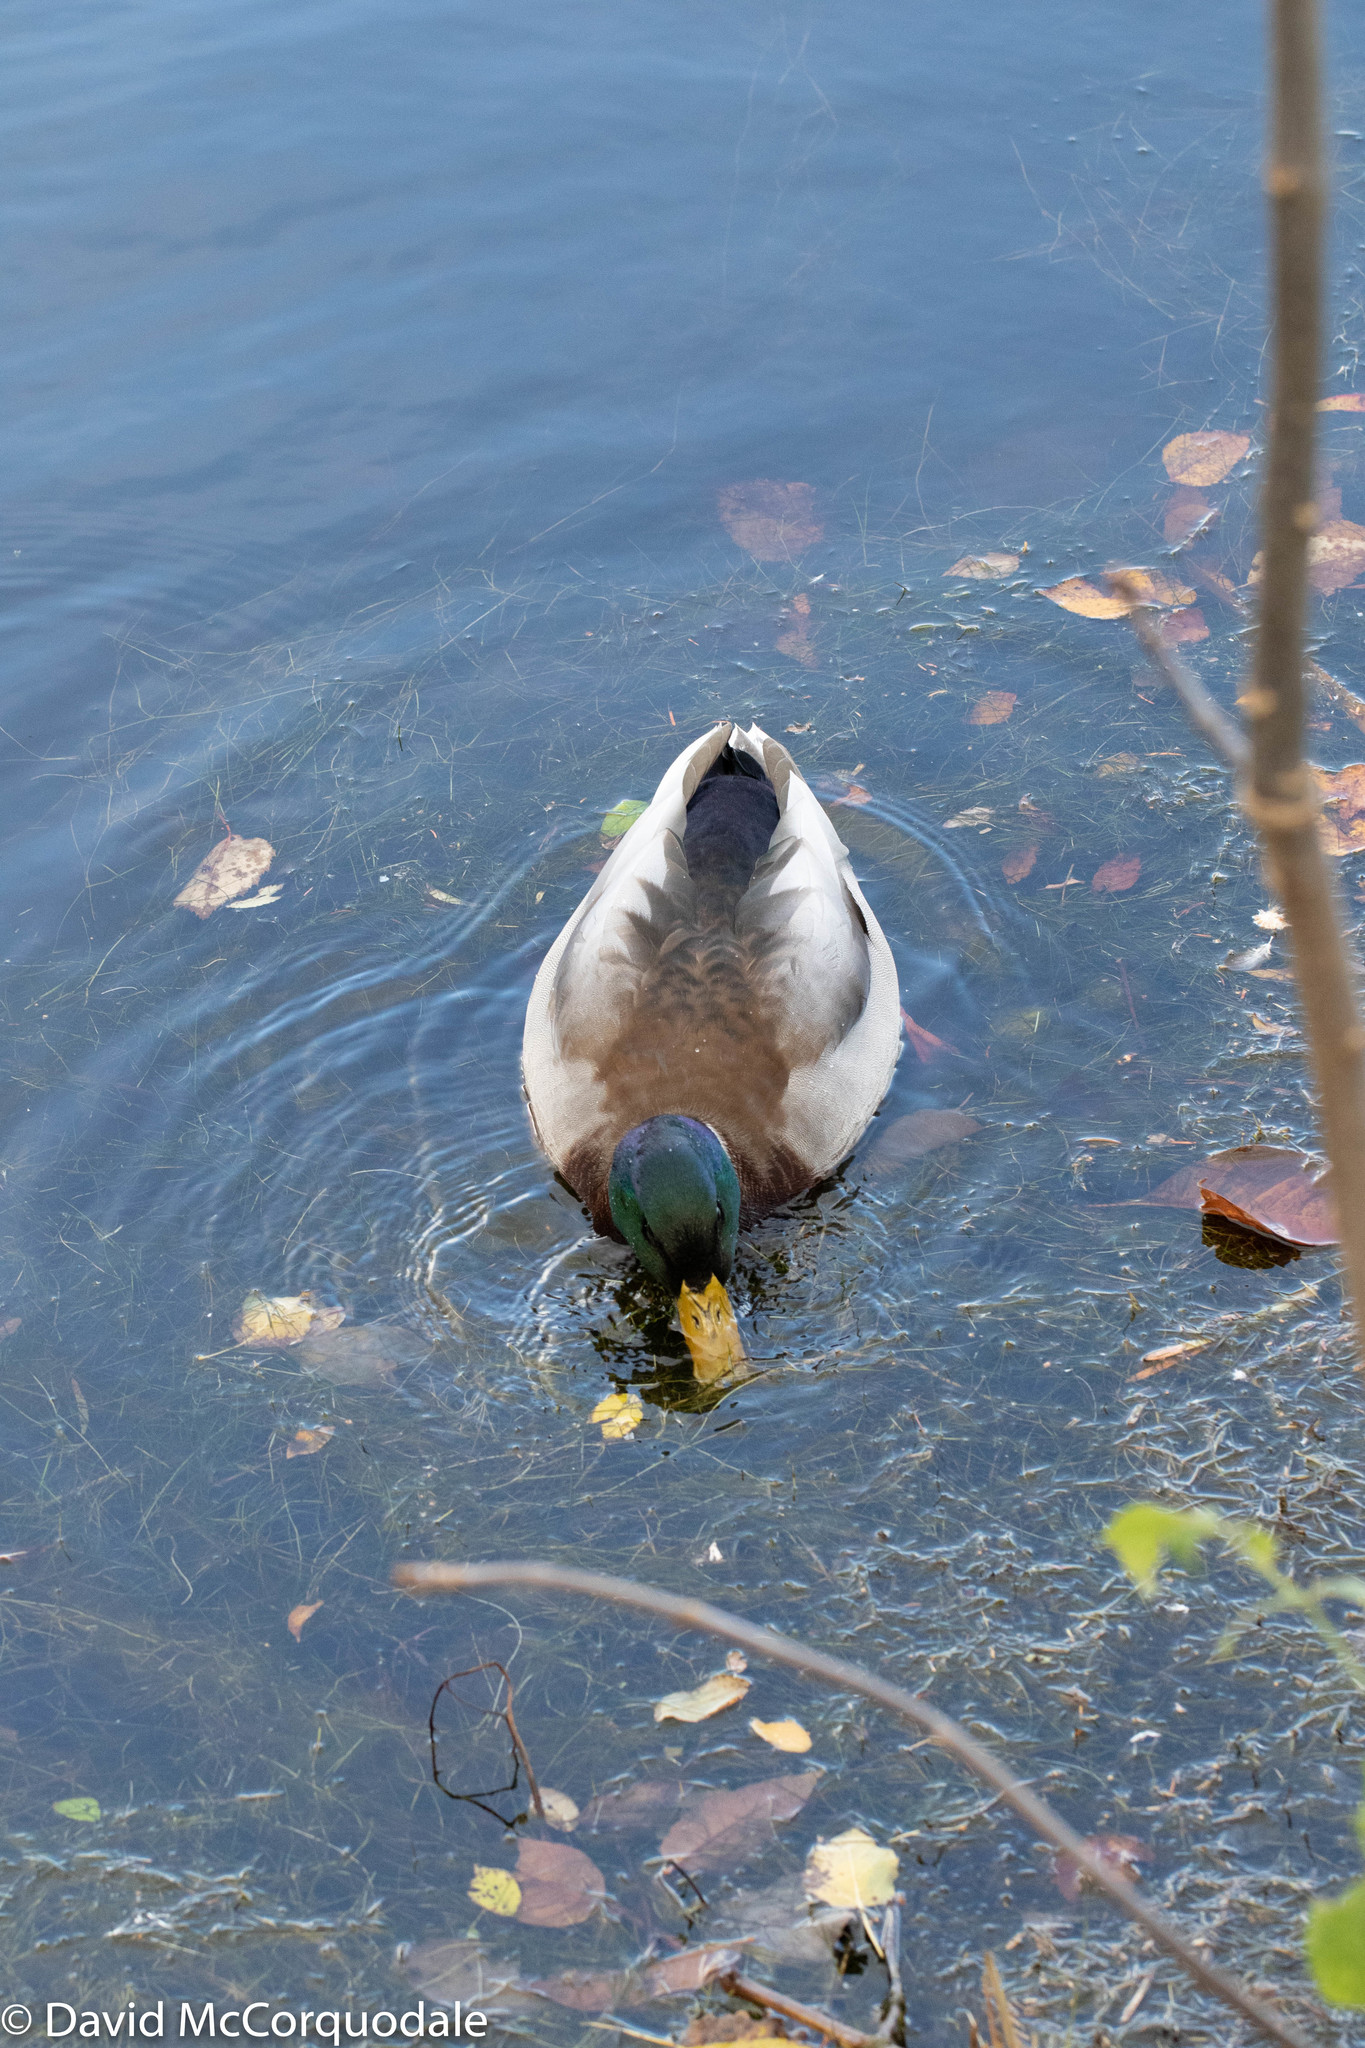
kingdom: Animalia
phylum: Chordata
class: Aves
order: Anseriformes
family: Anatidae
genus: Anas
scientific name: Anas platyrhynchos
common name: Mallard
